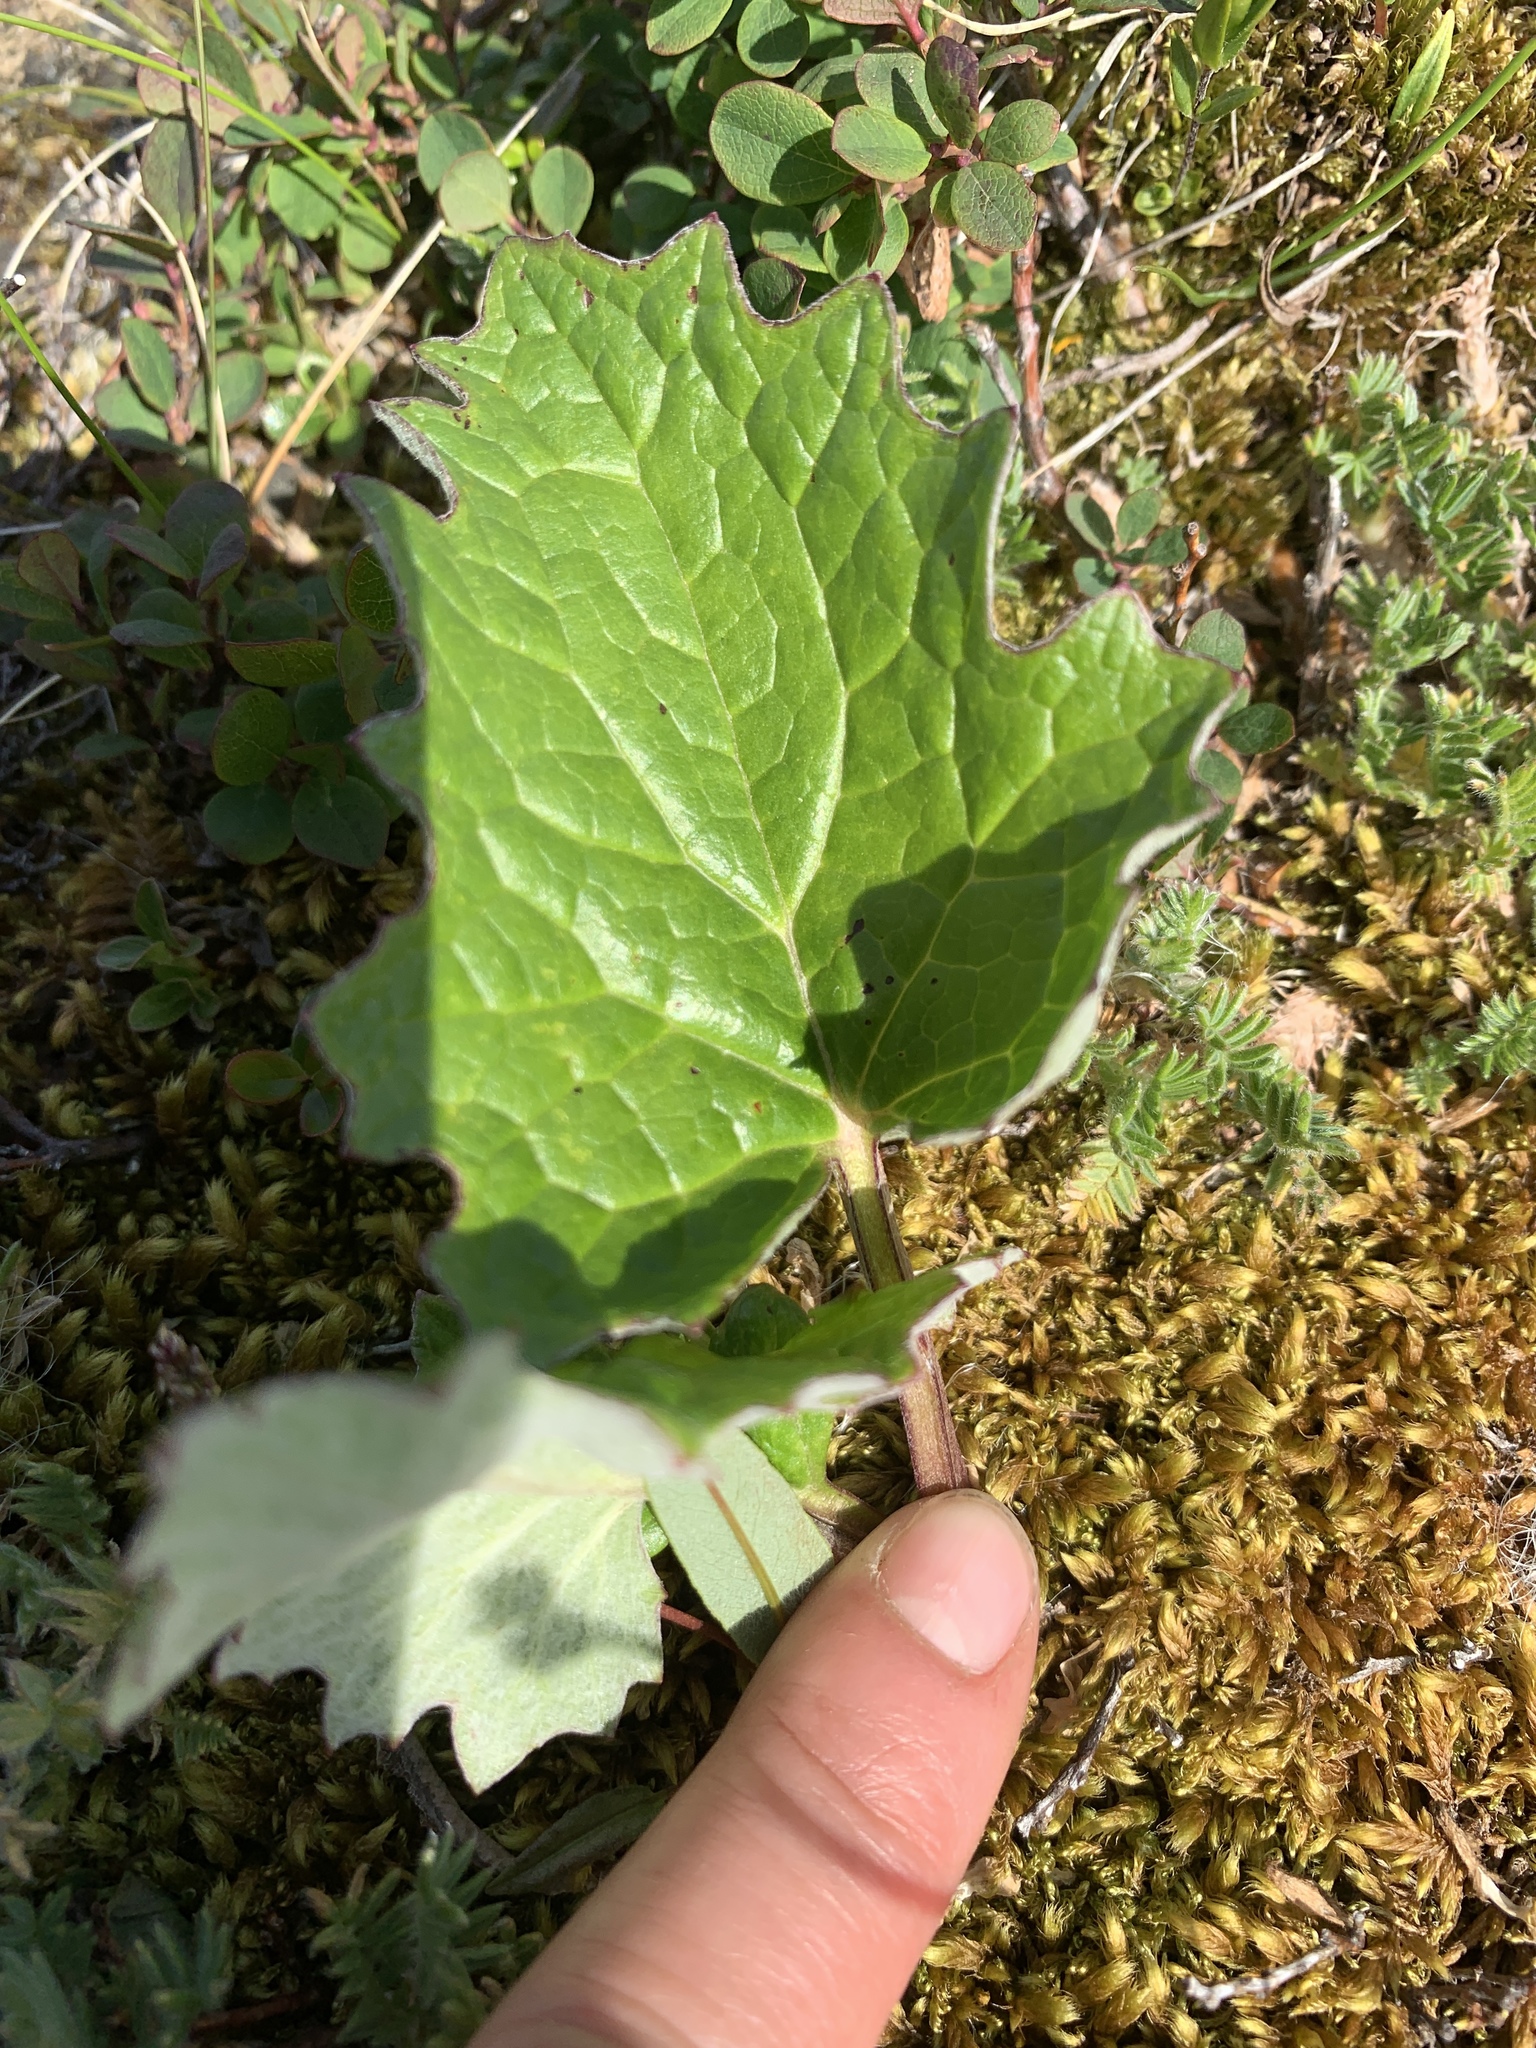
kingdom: Plantae
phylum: Tracheophyta
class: Magnoliopsida
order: Asterales
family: Asteraceae
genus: Petasites
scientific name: Petasites frigidus
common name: Arctic butterbur
